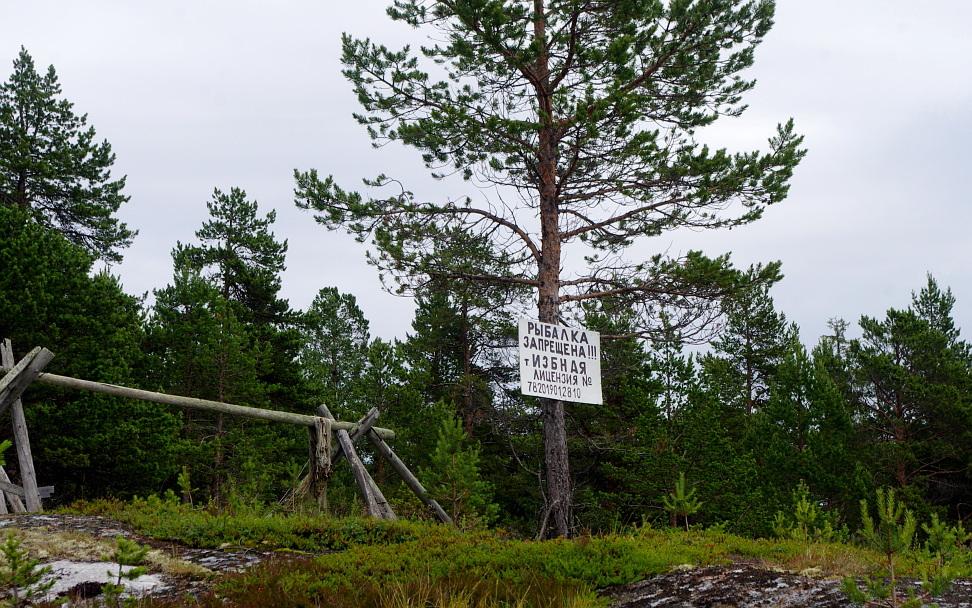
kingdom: Plantae
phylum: Tracheophyta
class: Pinopsida
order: Pinales
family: Pinaceae
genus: Pinus
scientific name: Pinus sylvestris
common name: Scots pine
